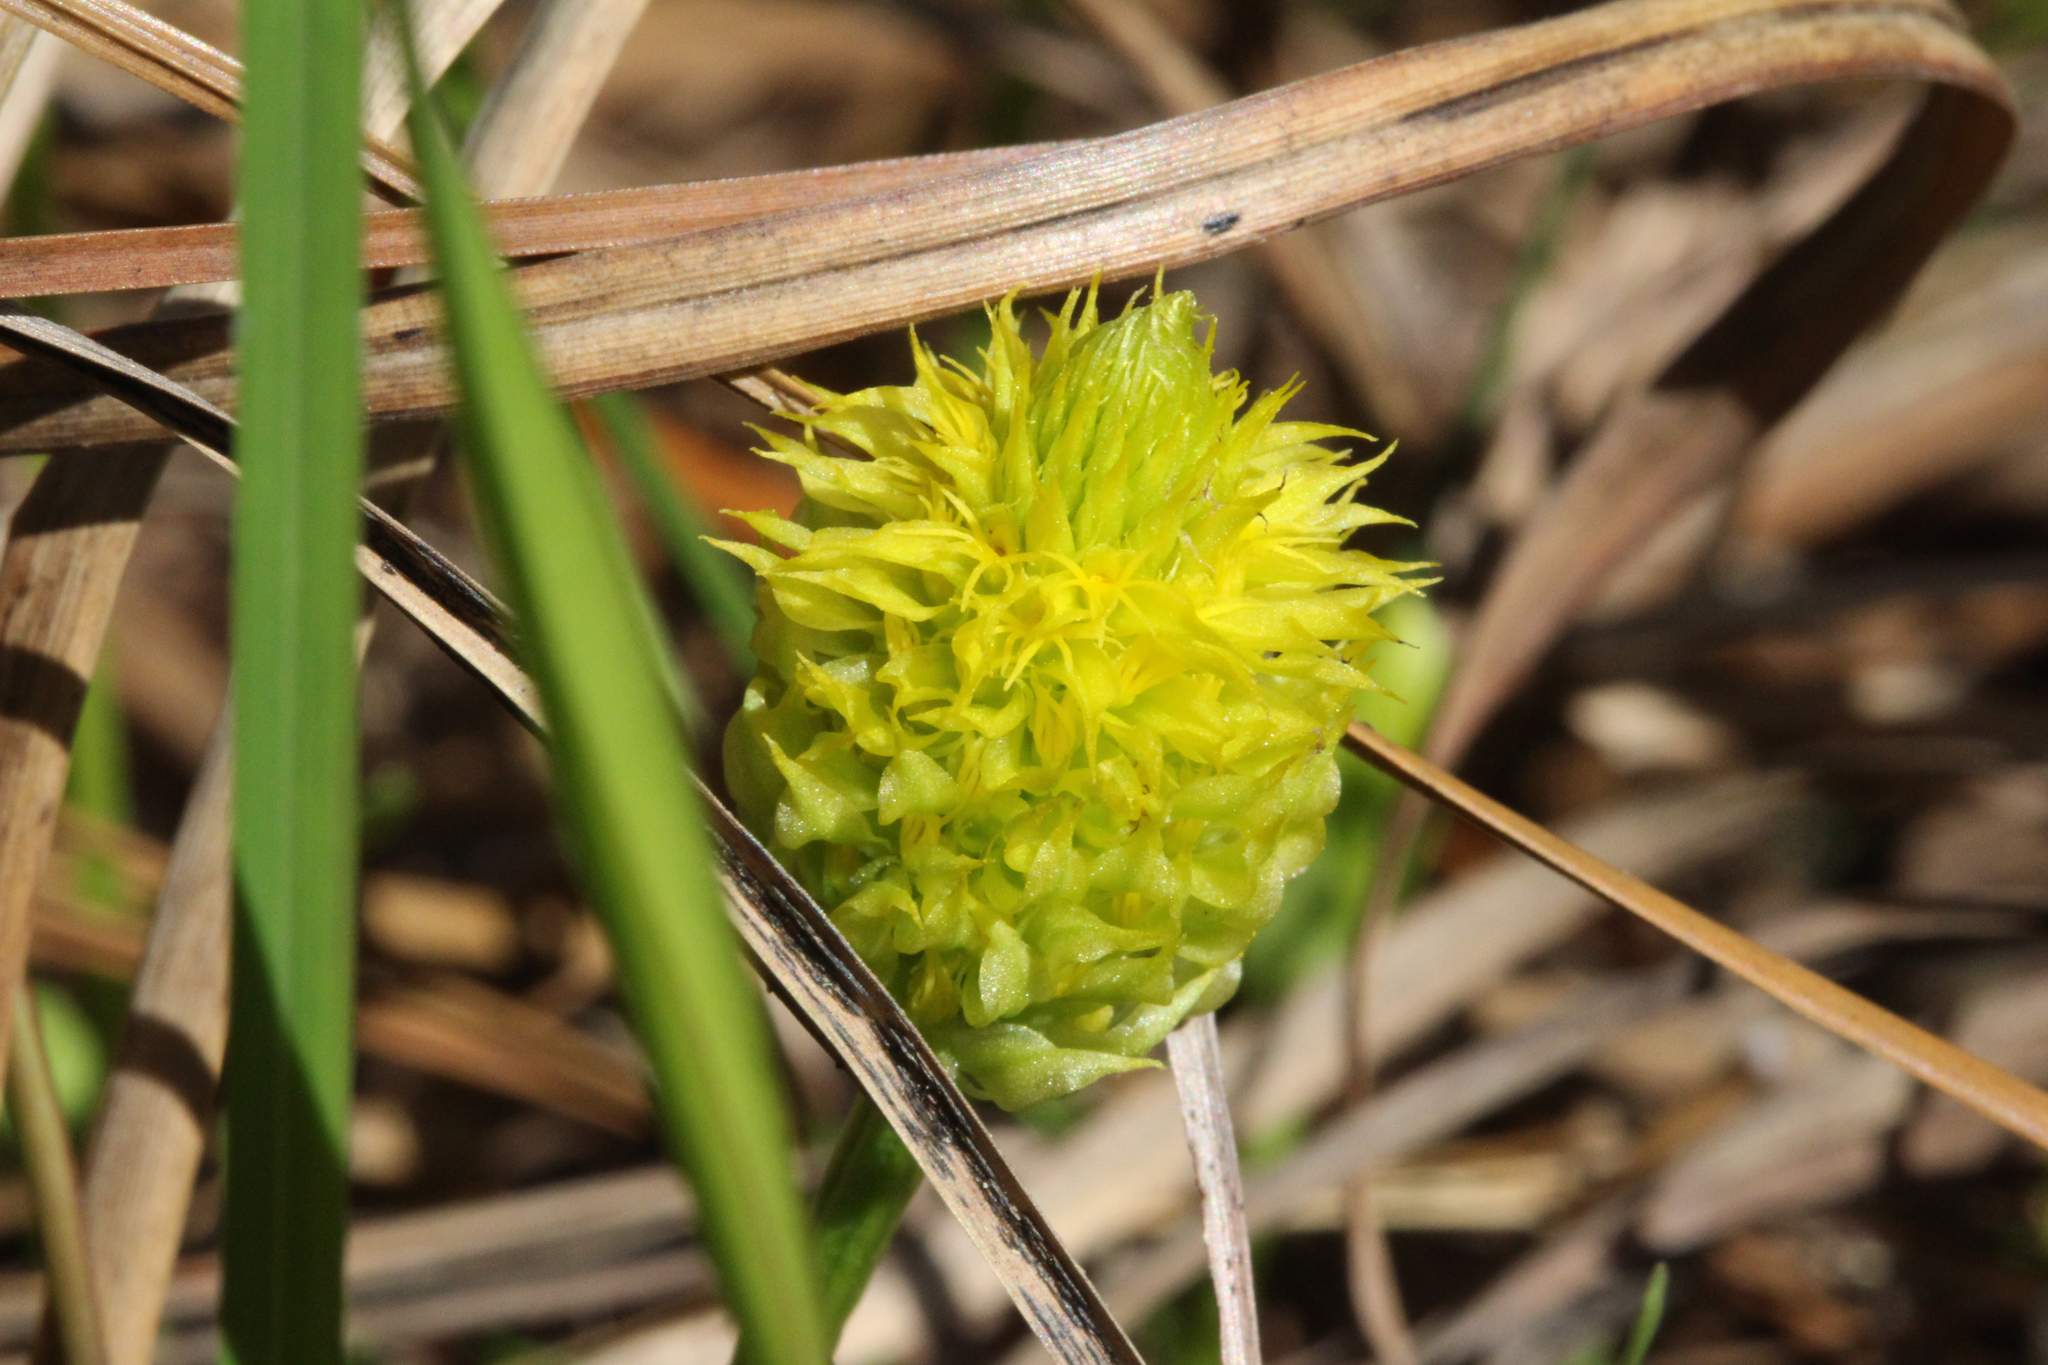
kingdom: Plantae
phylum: Tracheophyta
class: Magnoliopsida
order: Fabales
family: Polygalaceae
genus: Polygala
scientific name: Polygala nana
